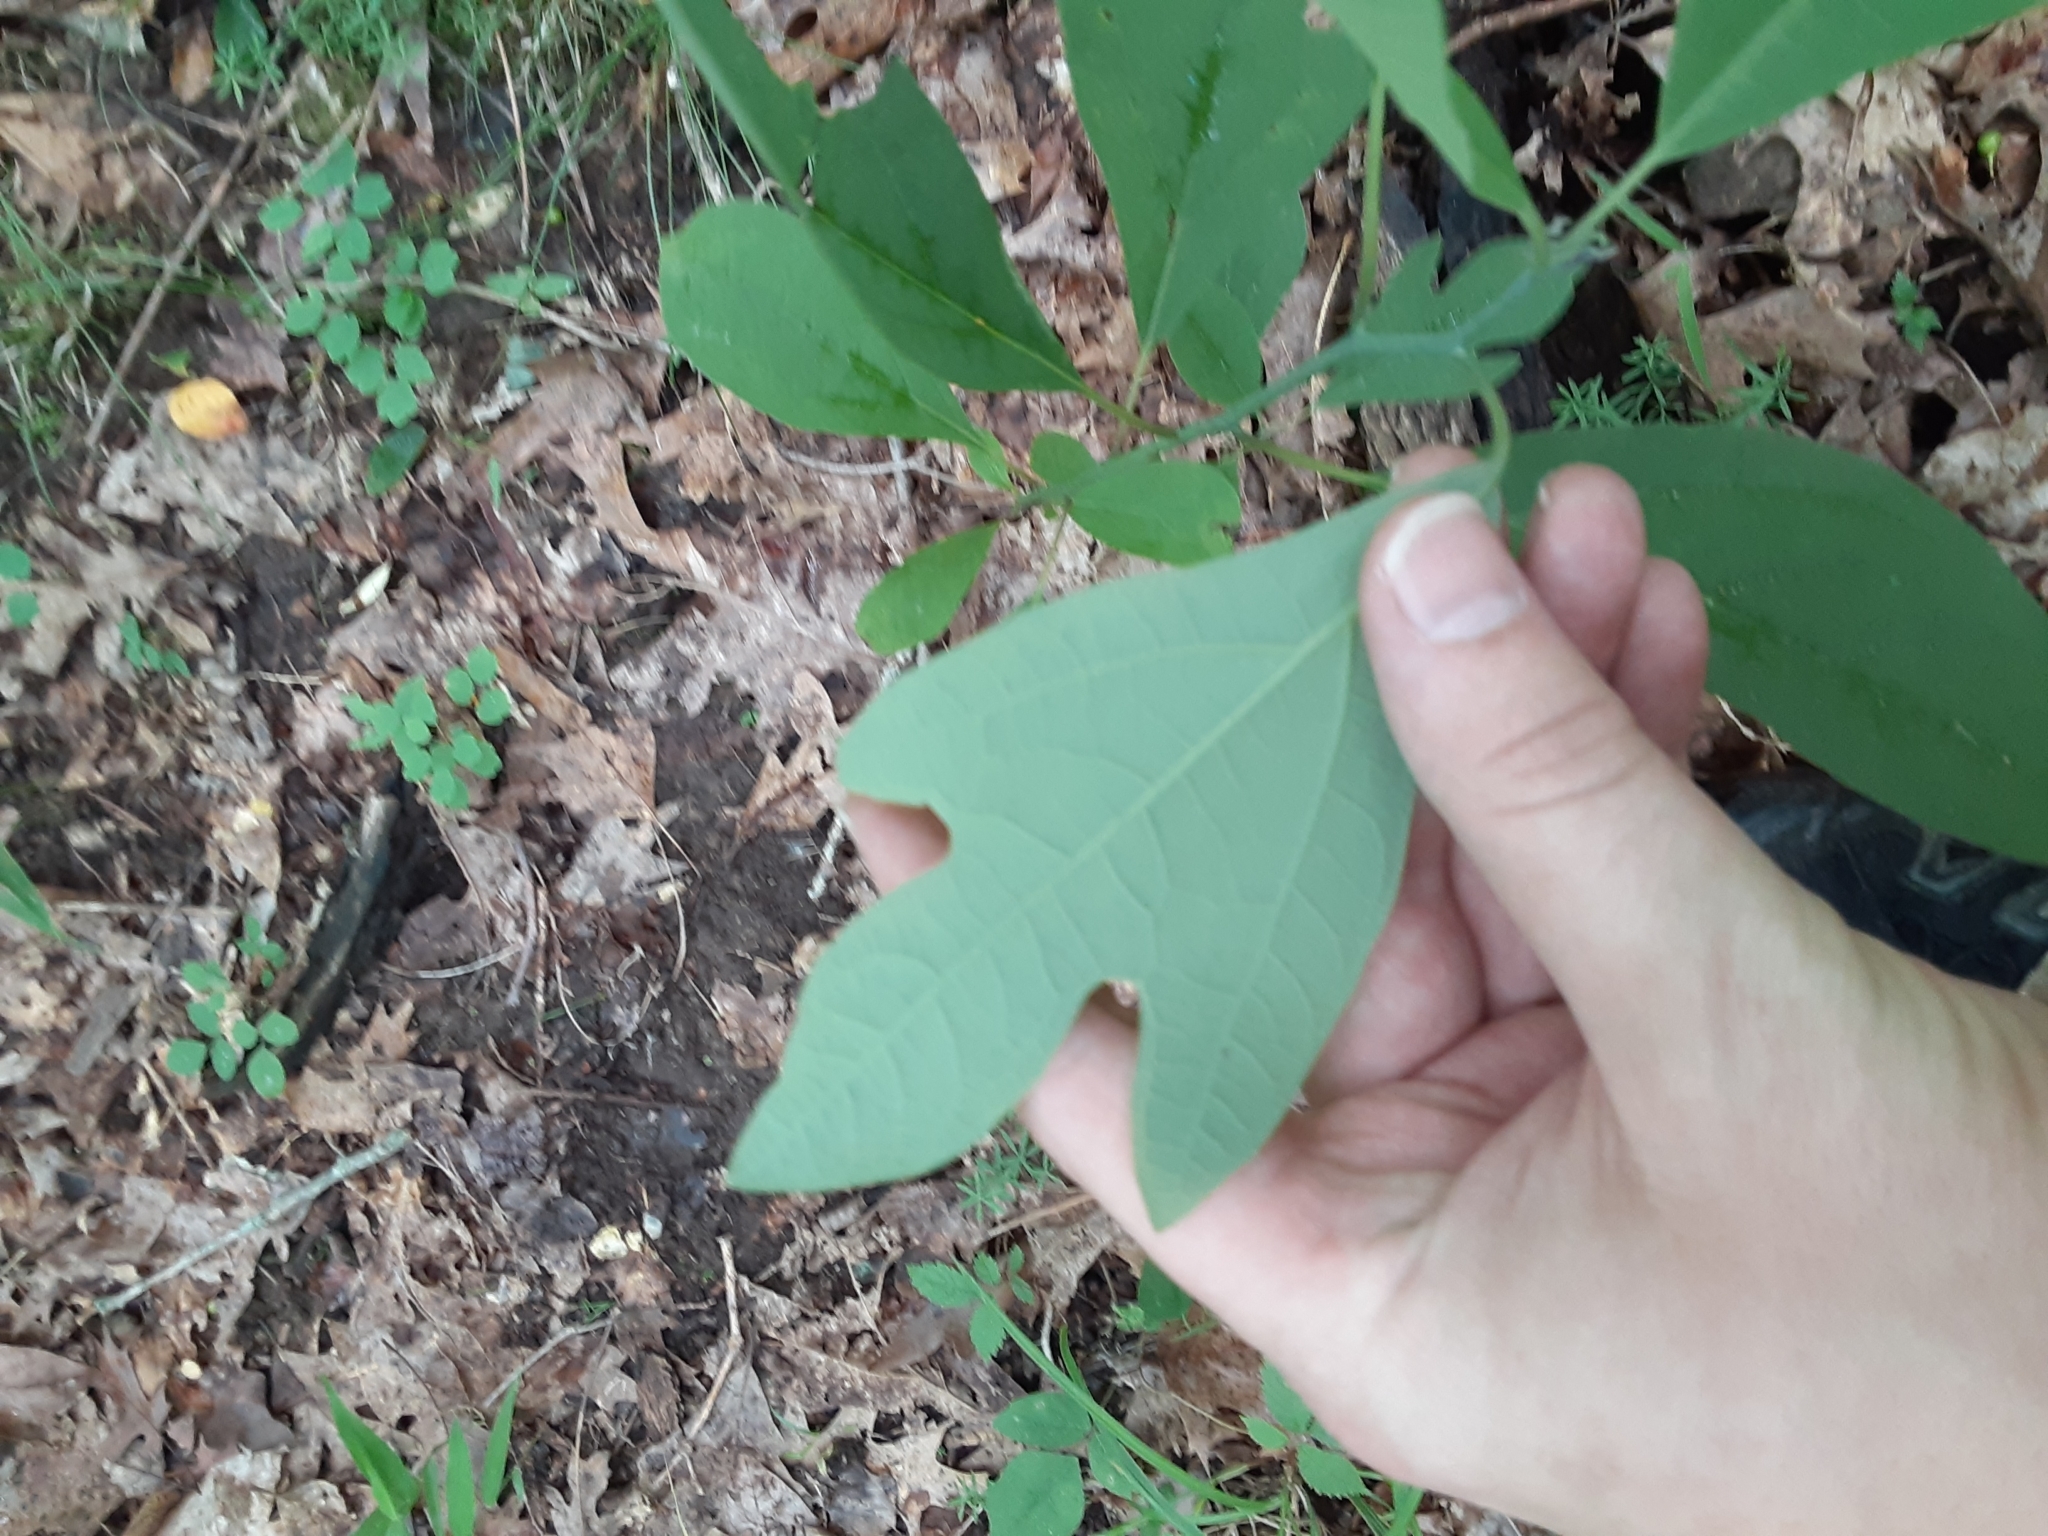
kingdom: Plantae
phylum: Tracheophyta
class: Magnoliopsida
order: Laurales
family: Lauraceae
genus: Sassafras
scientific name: Sassafras albidum
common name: Sassafras
